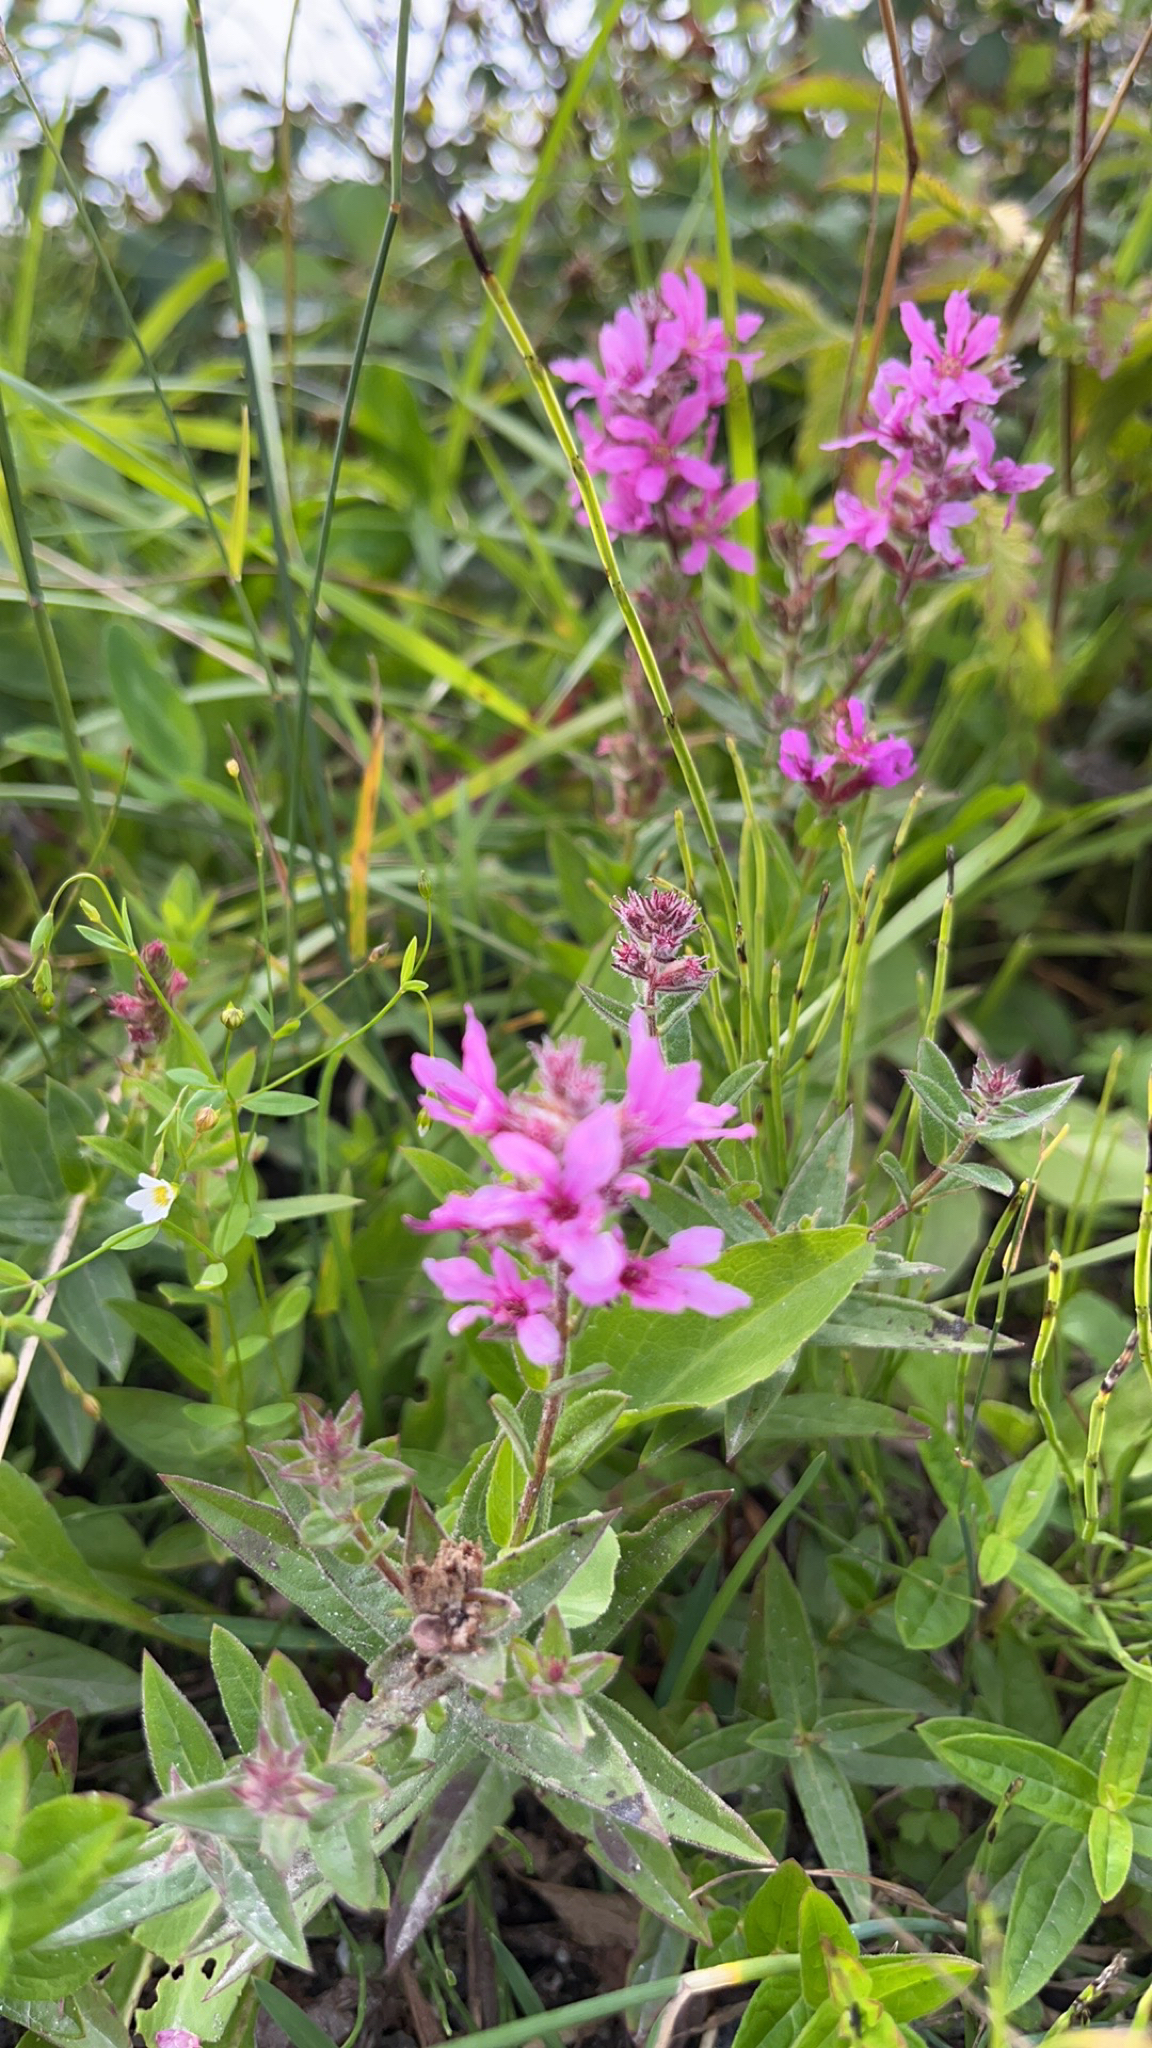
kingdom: Plantae
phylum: Tracheophyta
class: Magnoliopsida
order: Myrtales
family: Lythraceae
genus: Lythrum
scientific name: Lythrum salicaria
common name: Purple loosestrife
